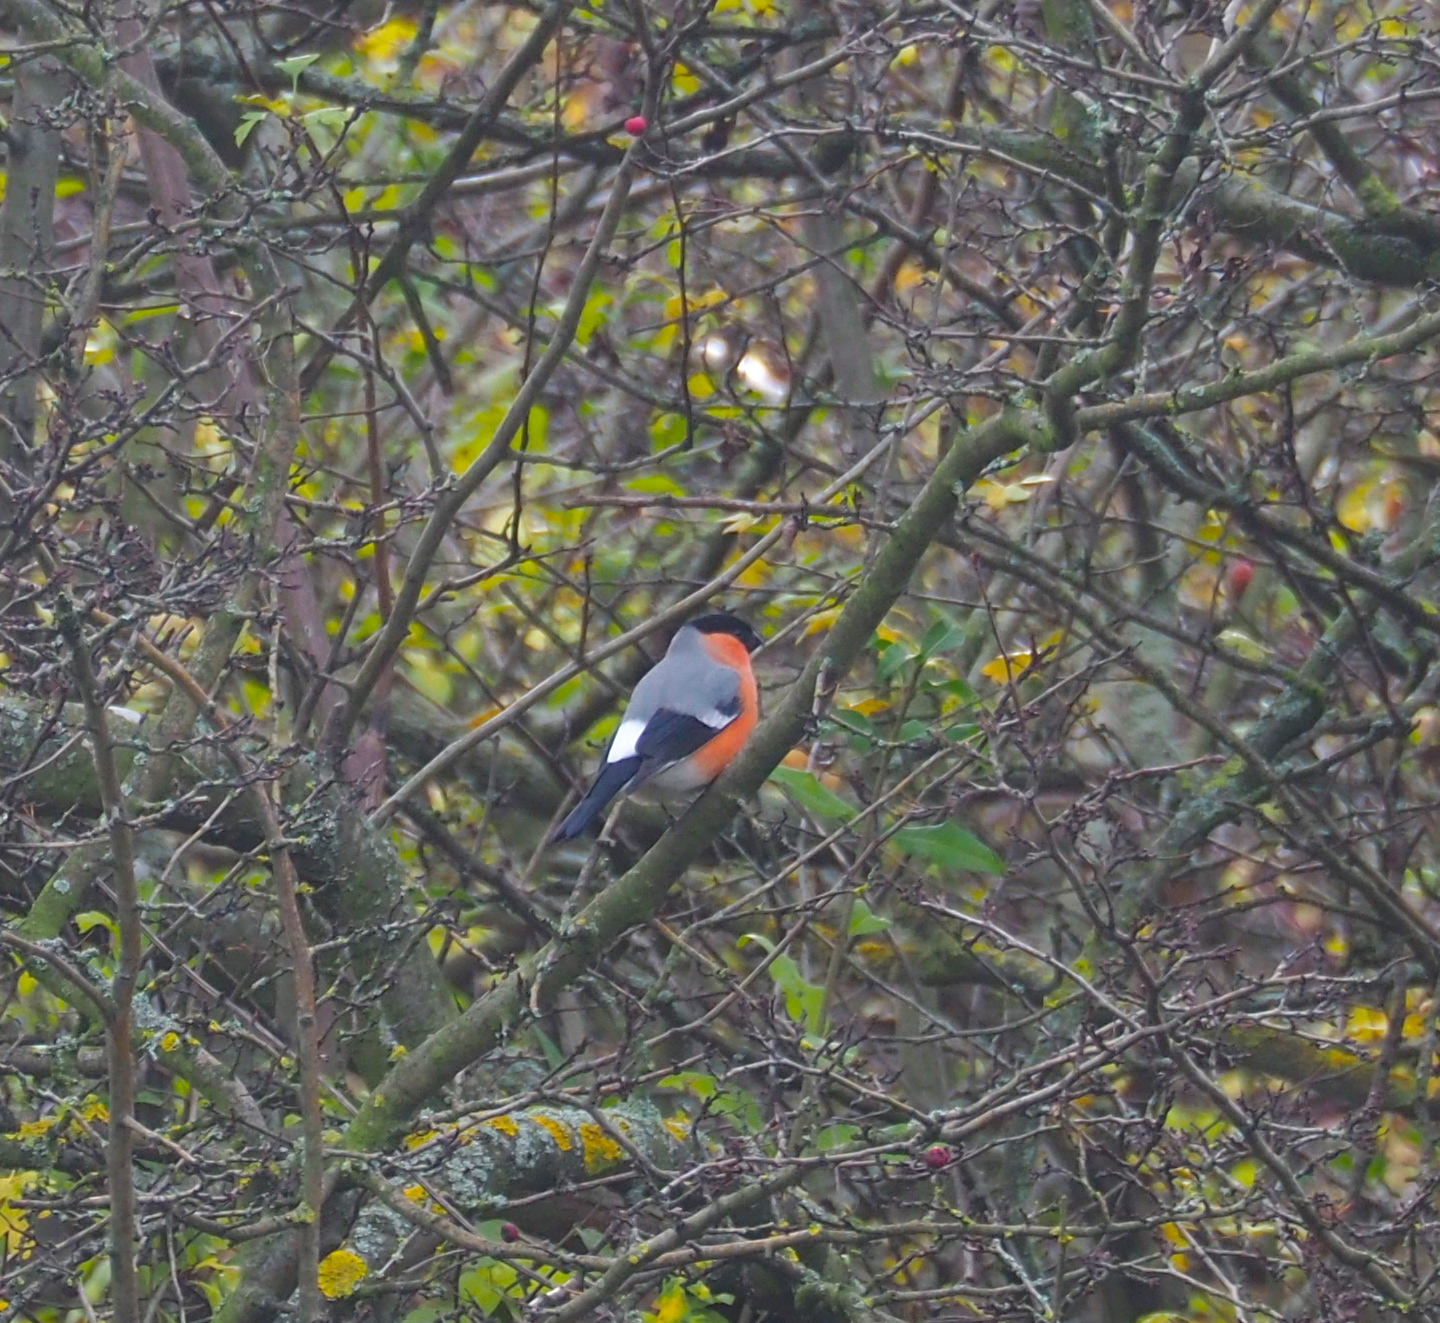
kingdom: Animalia
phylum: Chordata
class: Aves
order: Passeriformes
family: Fringillidae
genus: Pyrrhula
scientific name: Pyrrhula pyrrhula
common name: Eurasian bullfinch
